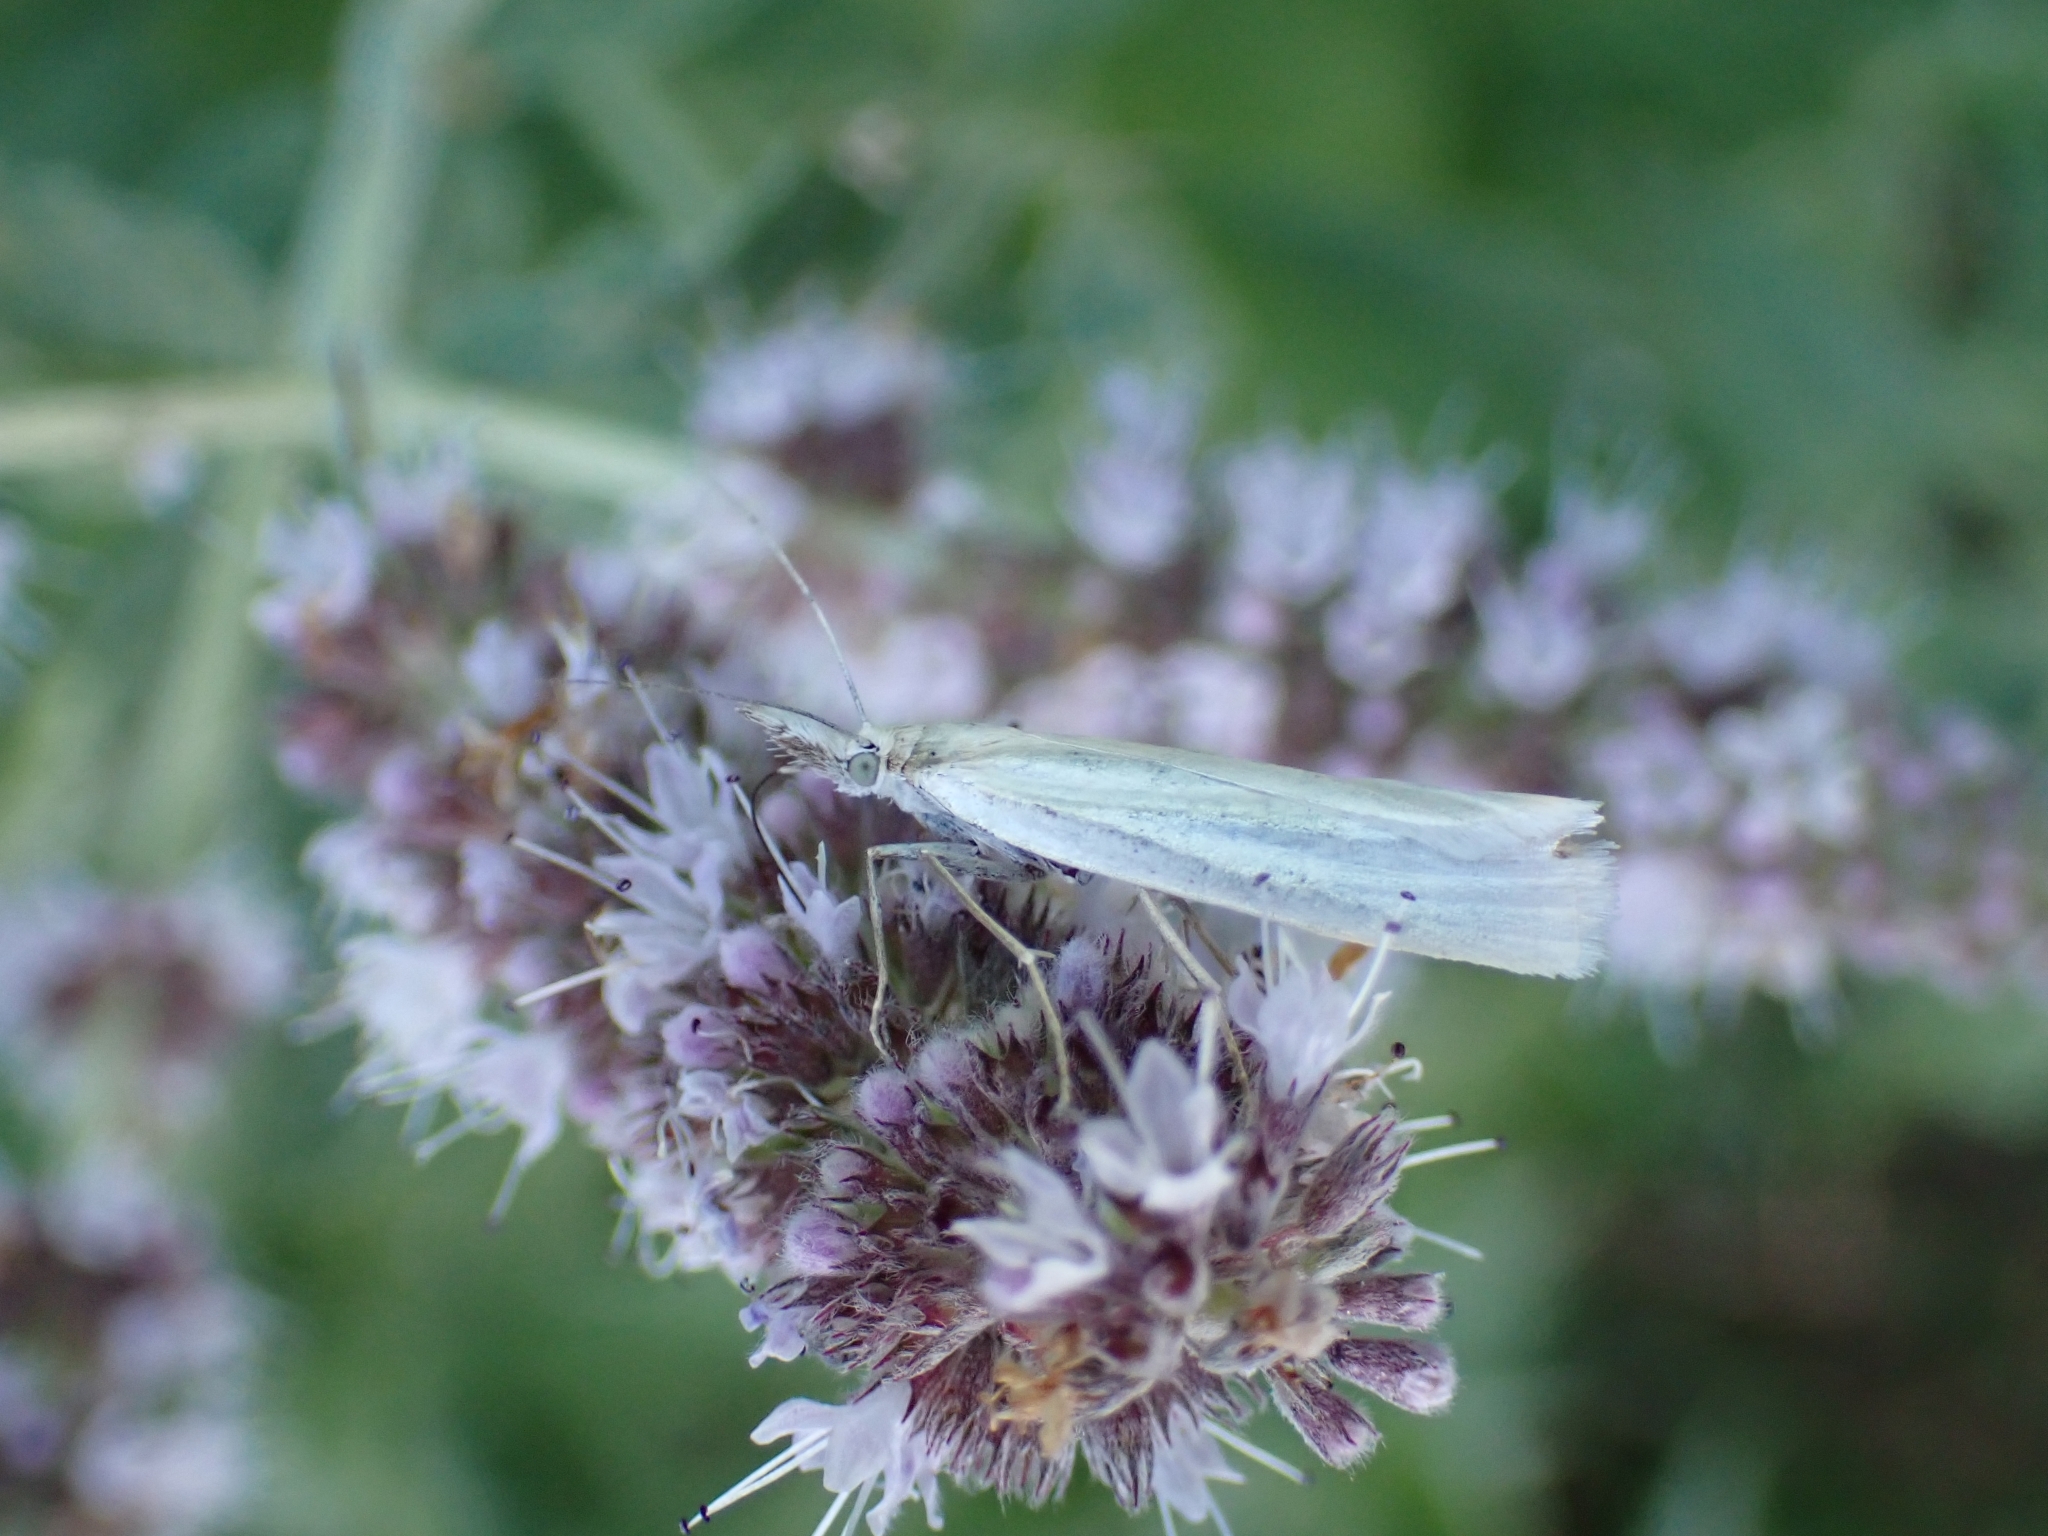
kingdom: Animalia
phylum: Arthropoda
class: Insecta
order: Lepidoptera
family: Crambidae
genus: Crambus
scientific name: Crambus perlellus
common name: Yellow satin veneer
